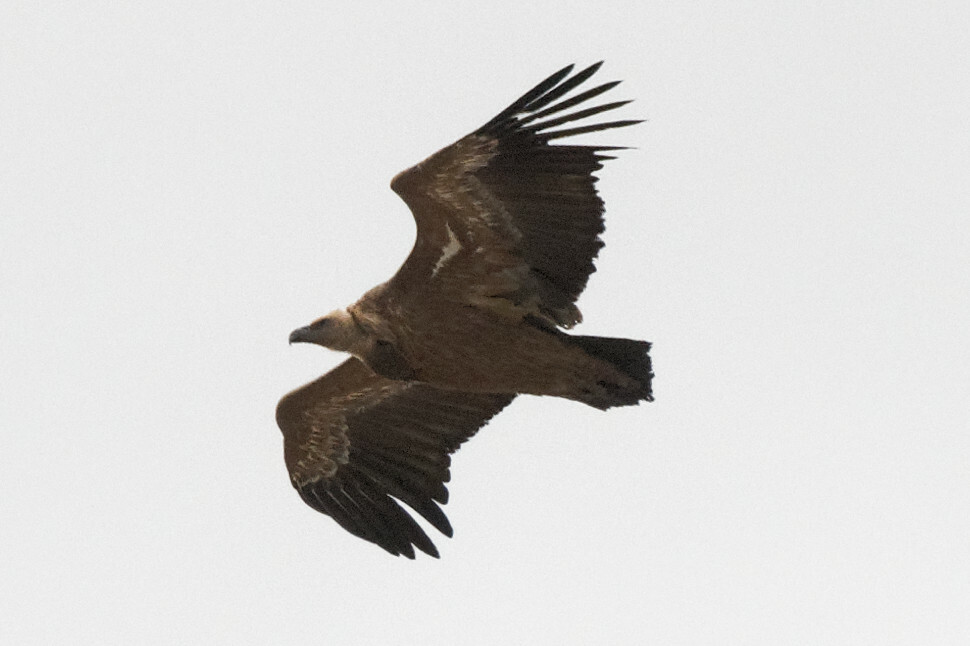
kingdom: Animalia
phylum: Chordata
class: Aves
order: Accipitriformes
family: Accipitridae
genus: Gyps
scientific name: Gyps fulvus
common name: Griffon vulture
